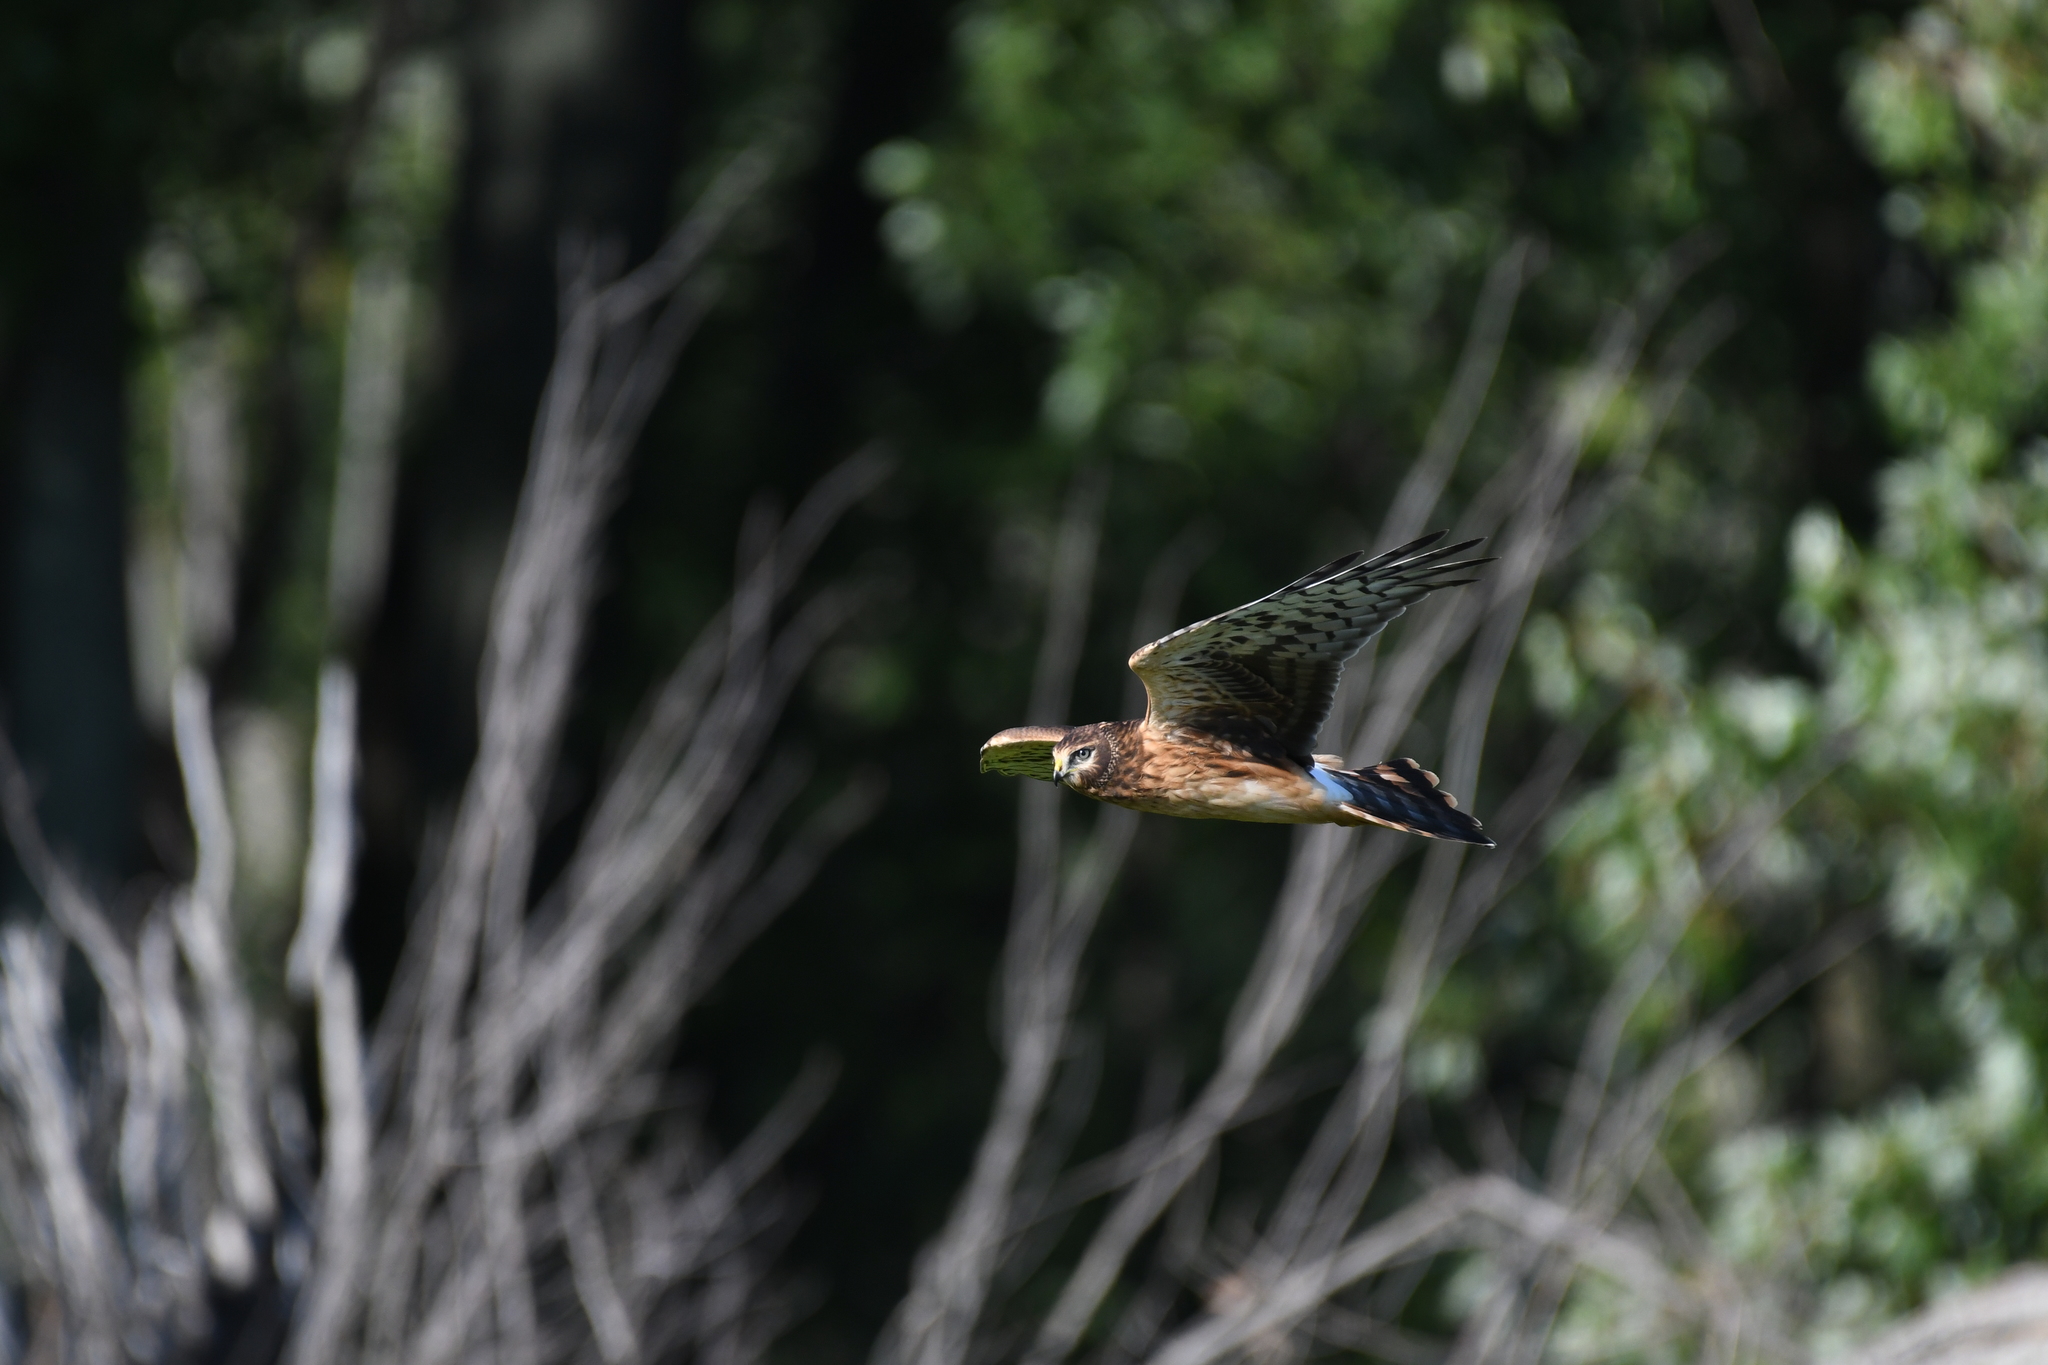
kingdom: Animalia
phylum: Chordata
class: Aves
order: Accipitriformes
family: Accipitridae
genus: Circus
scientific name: Circus cyaneus
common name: Hen harrier
